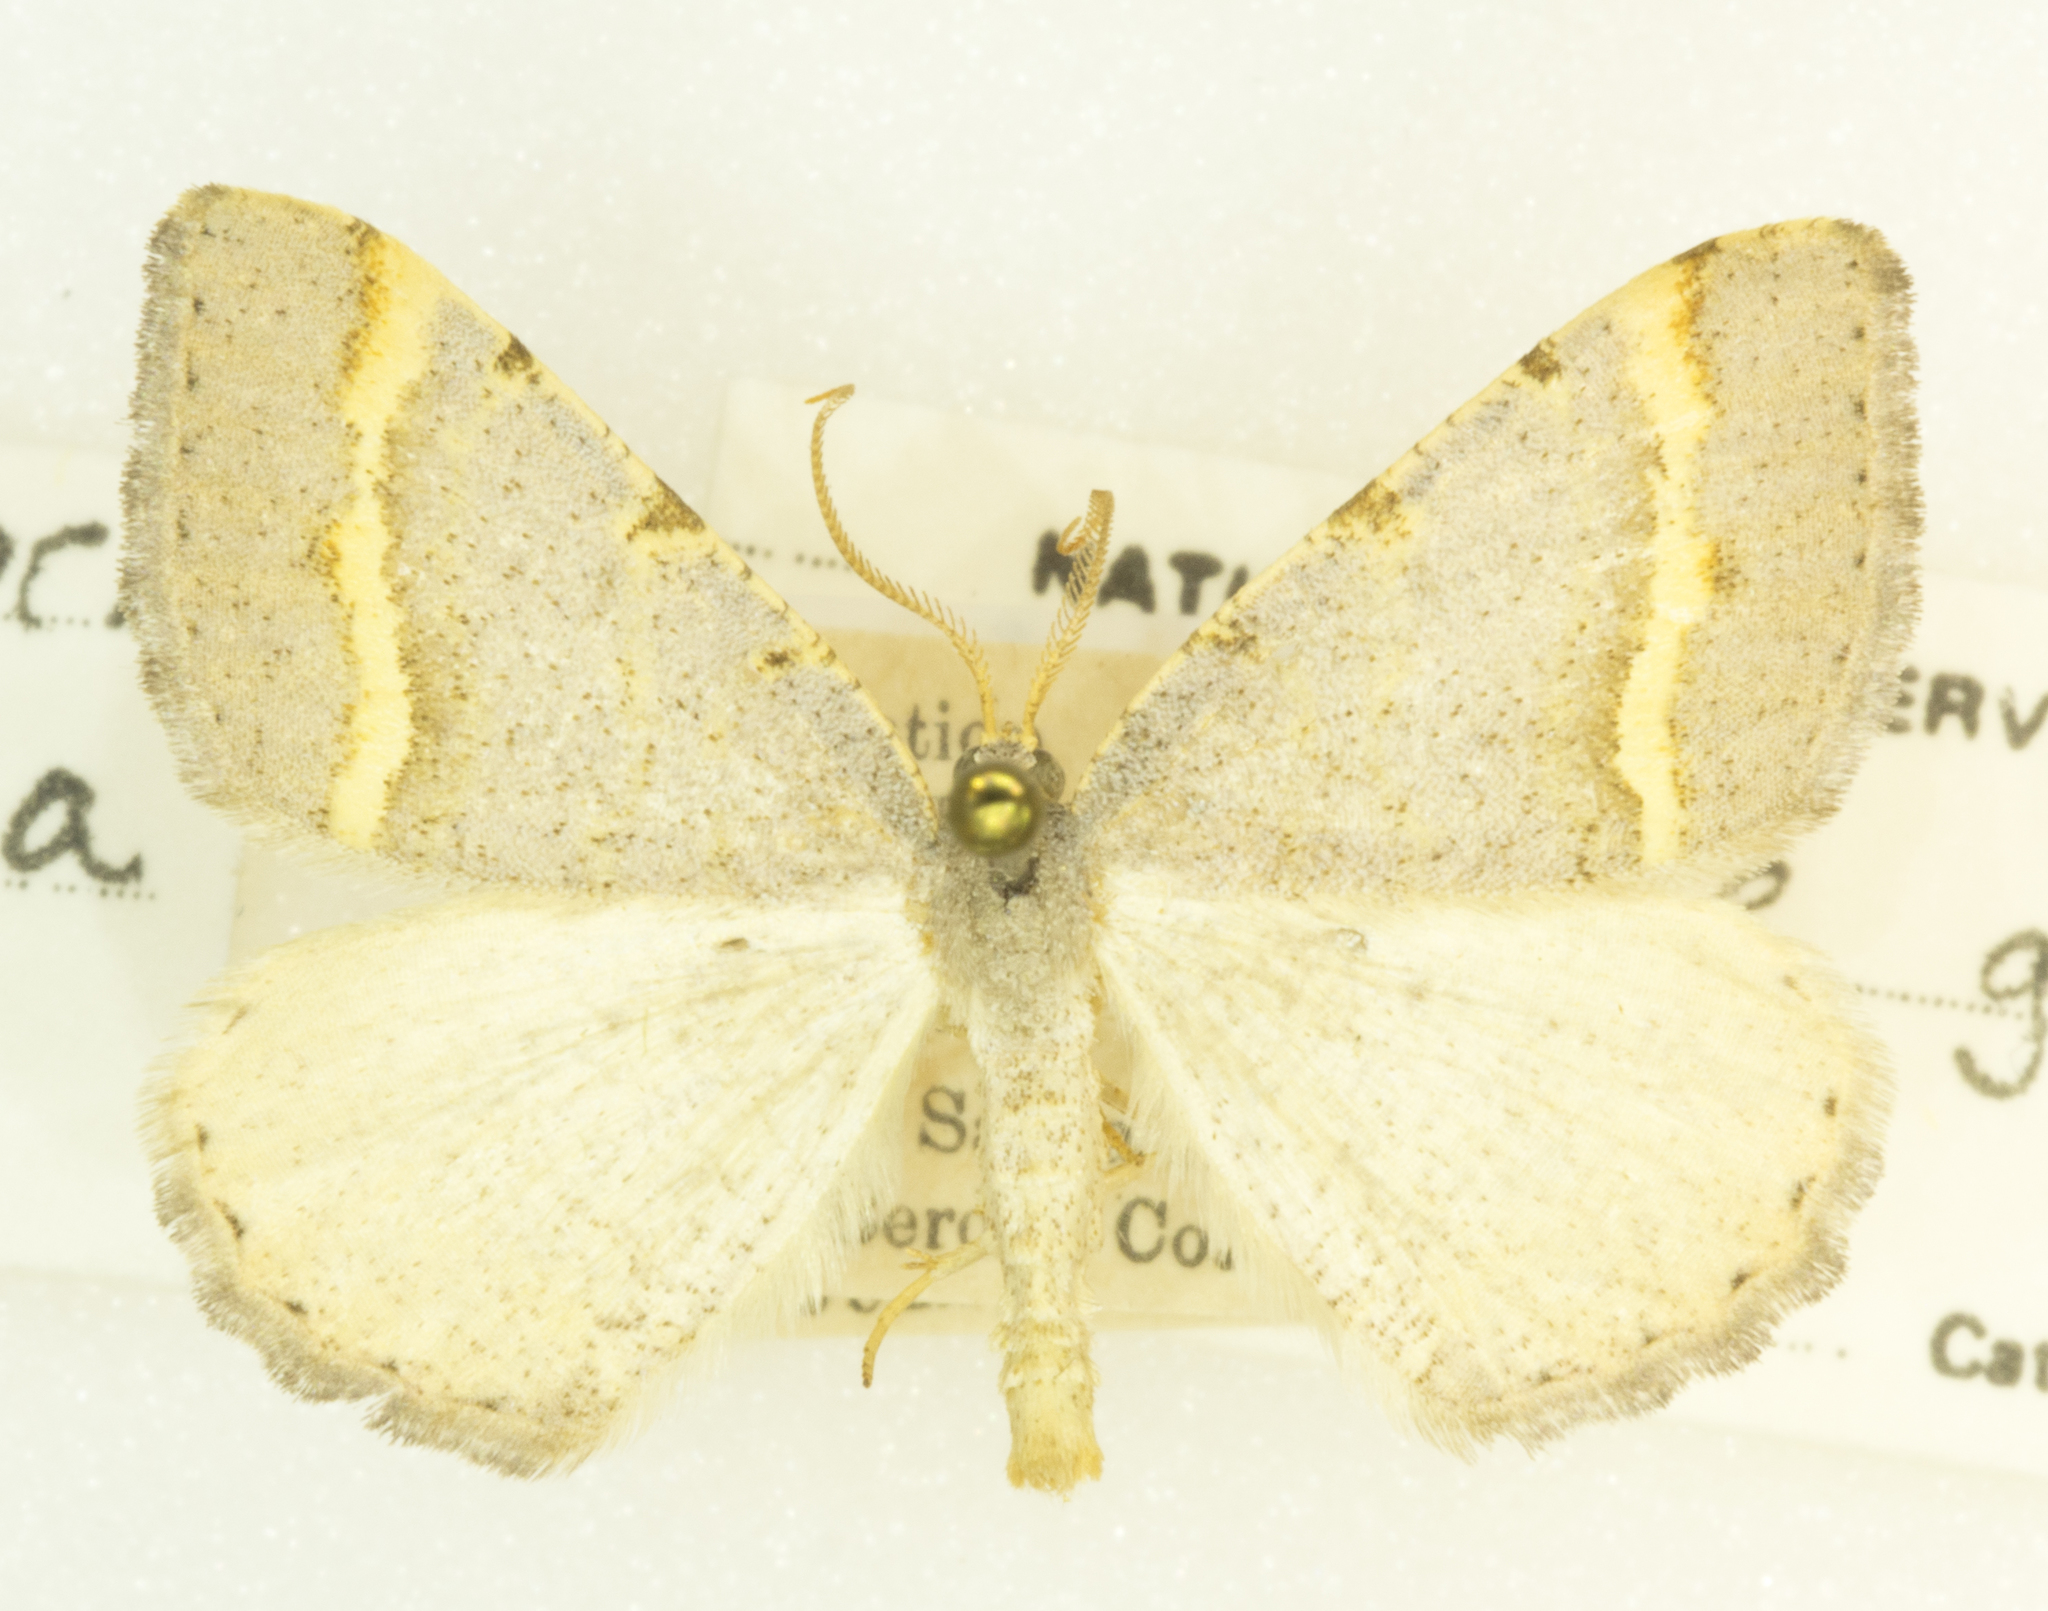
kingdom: Animalia
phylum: Arthropoda
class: Insecta
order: Lepidoptera
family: Geometridae
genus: Macaria
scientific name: Macaria guenearia
